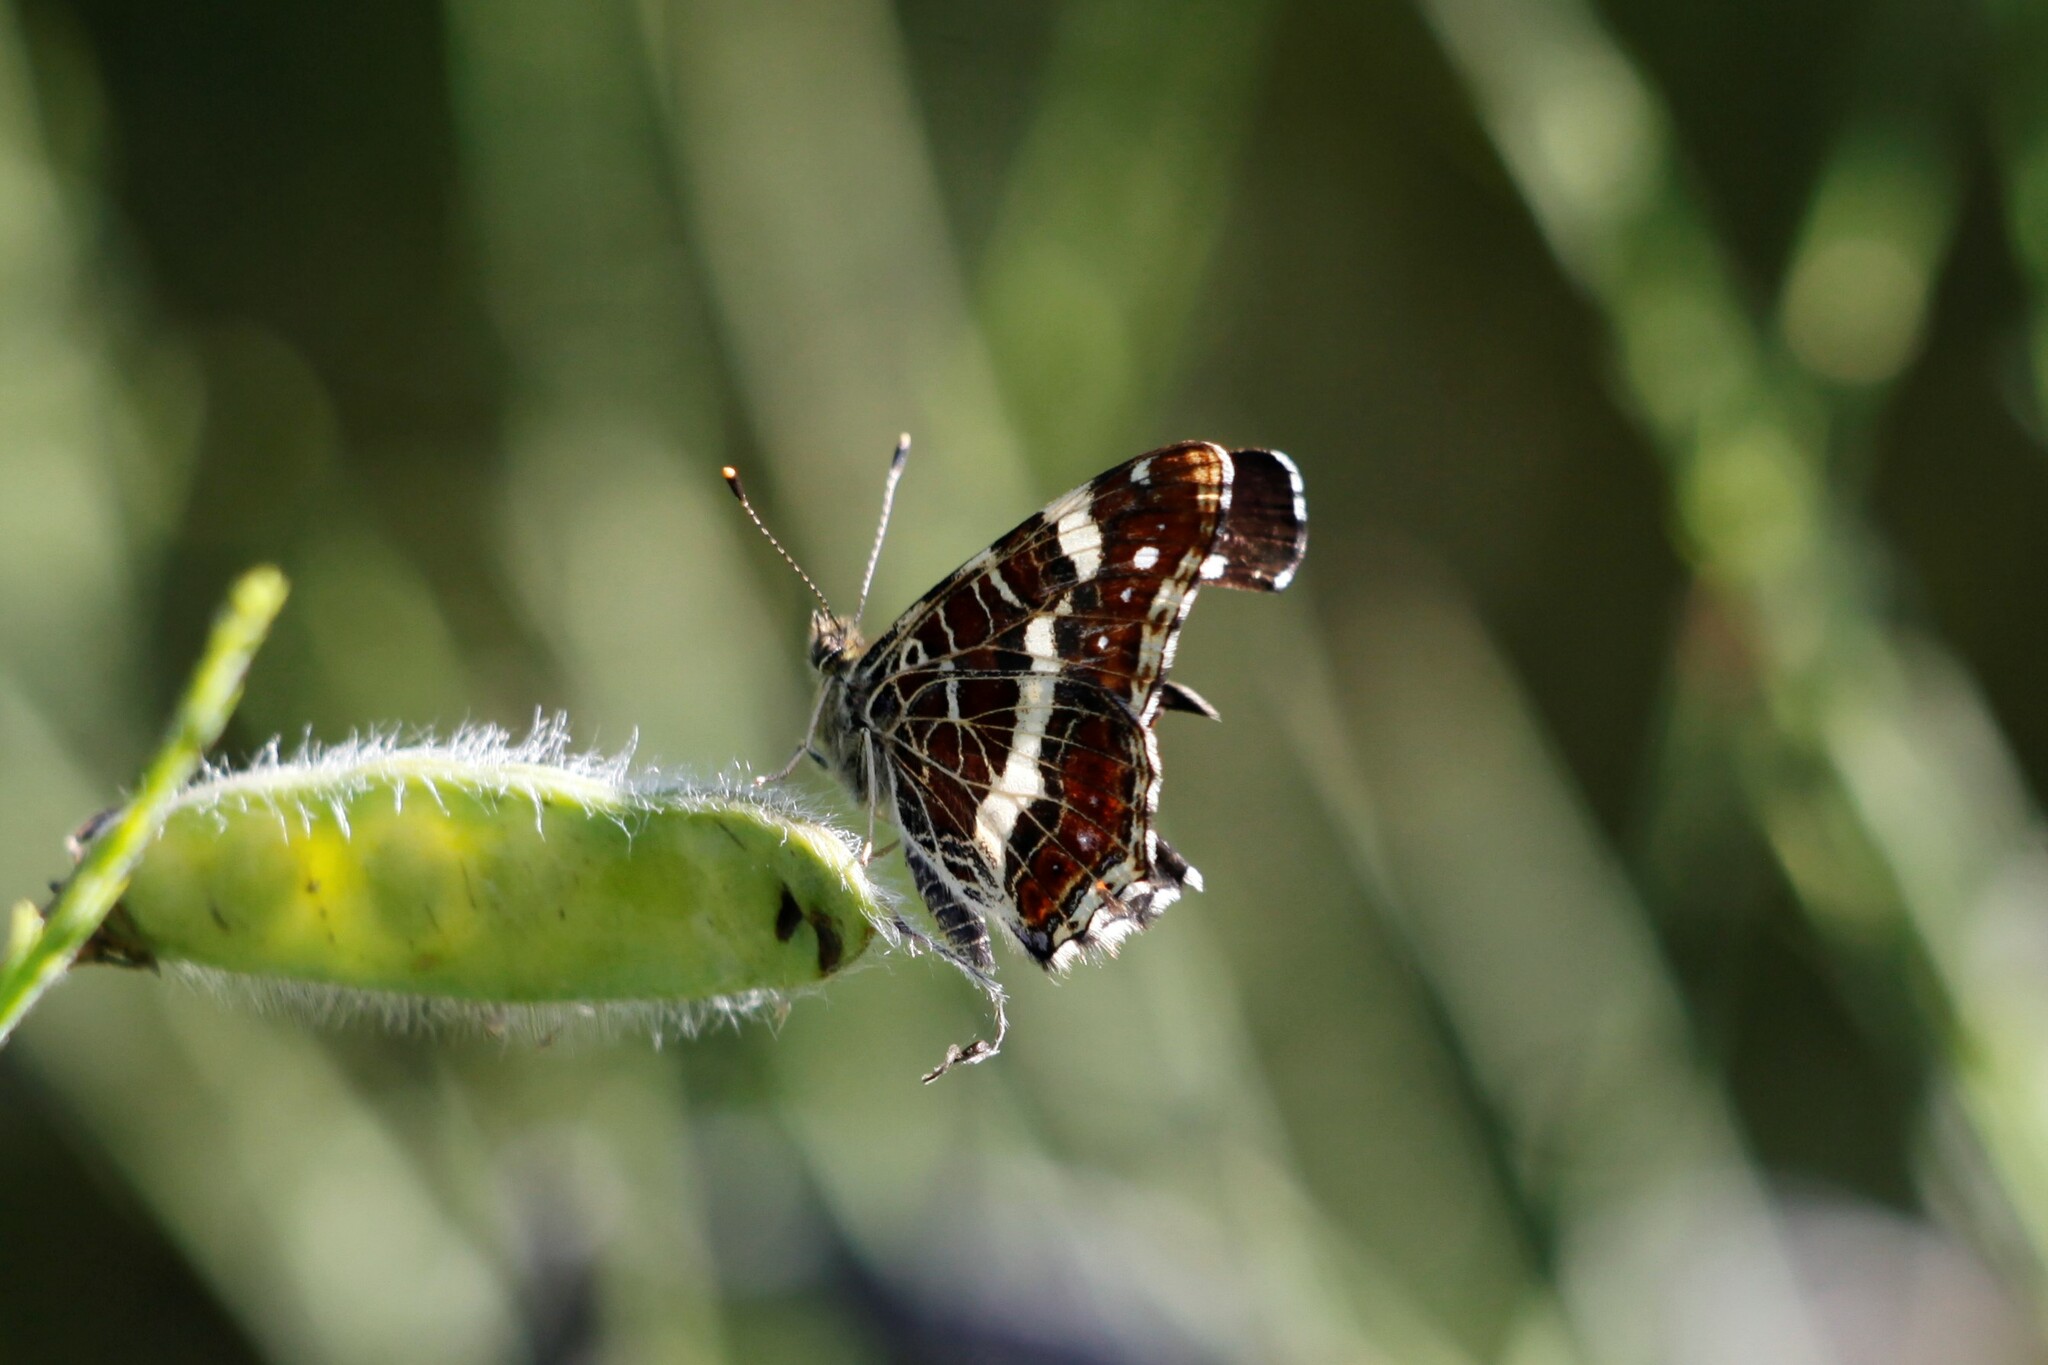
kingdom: Animalia
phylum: Arthropoda
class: Insecta
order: Lepidoptera
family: Nymphalidae
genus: Araschnia
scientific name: Araschnia levana
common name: Map butterfly
